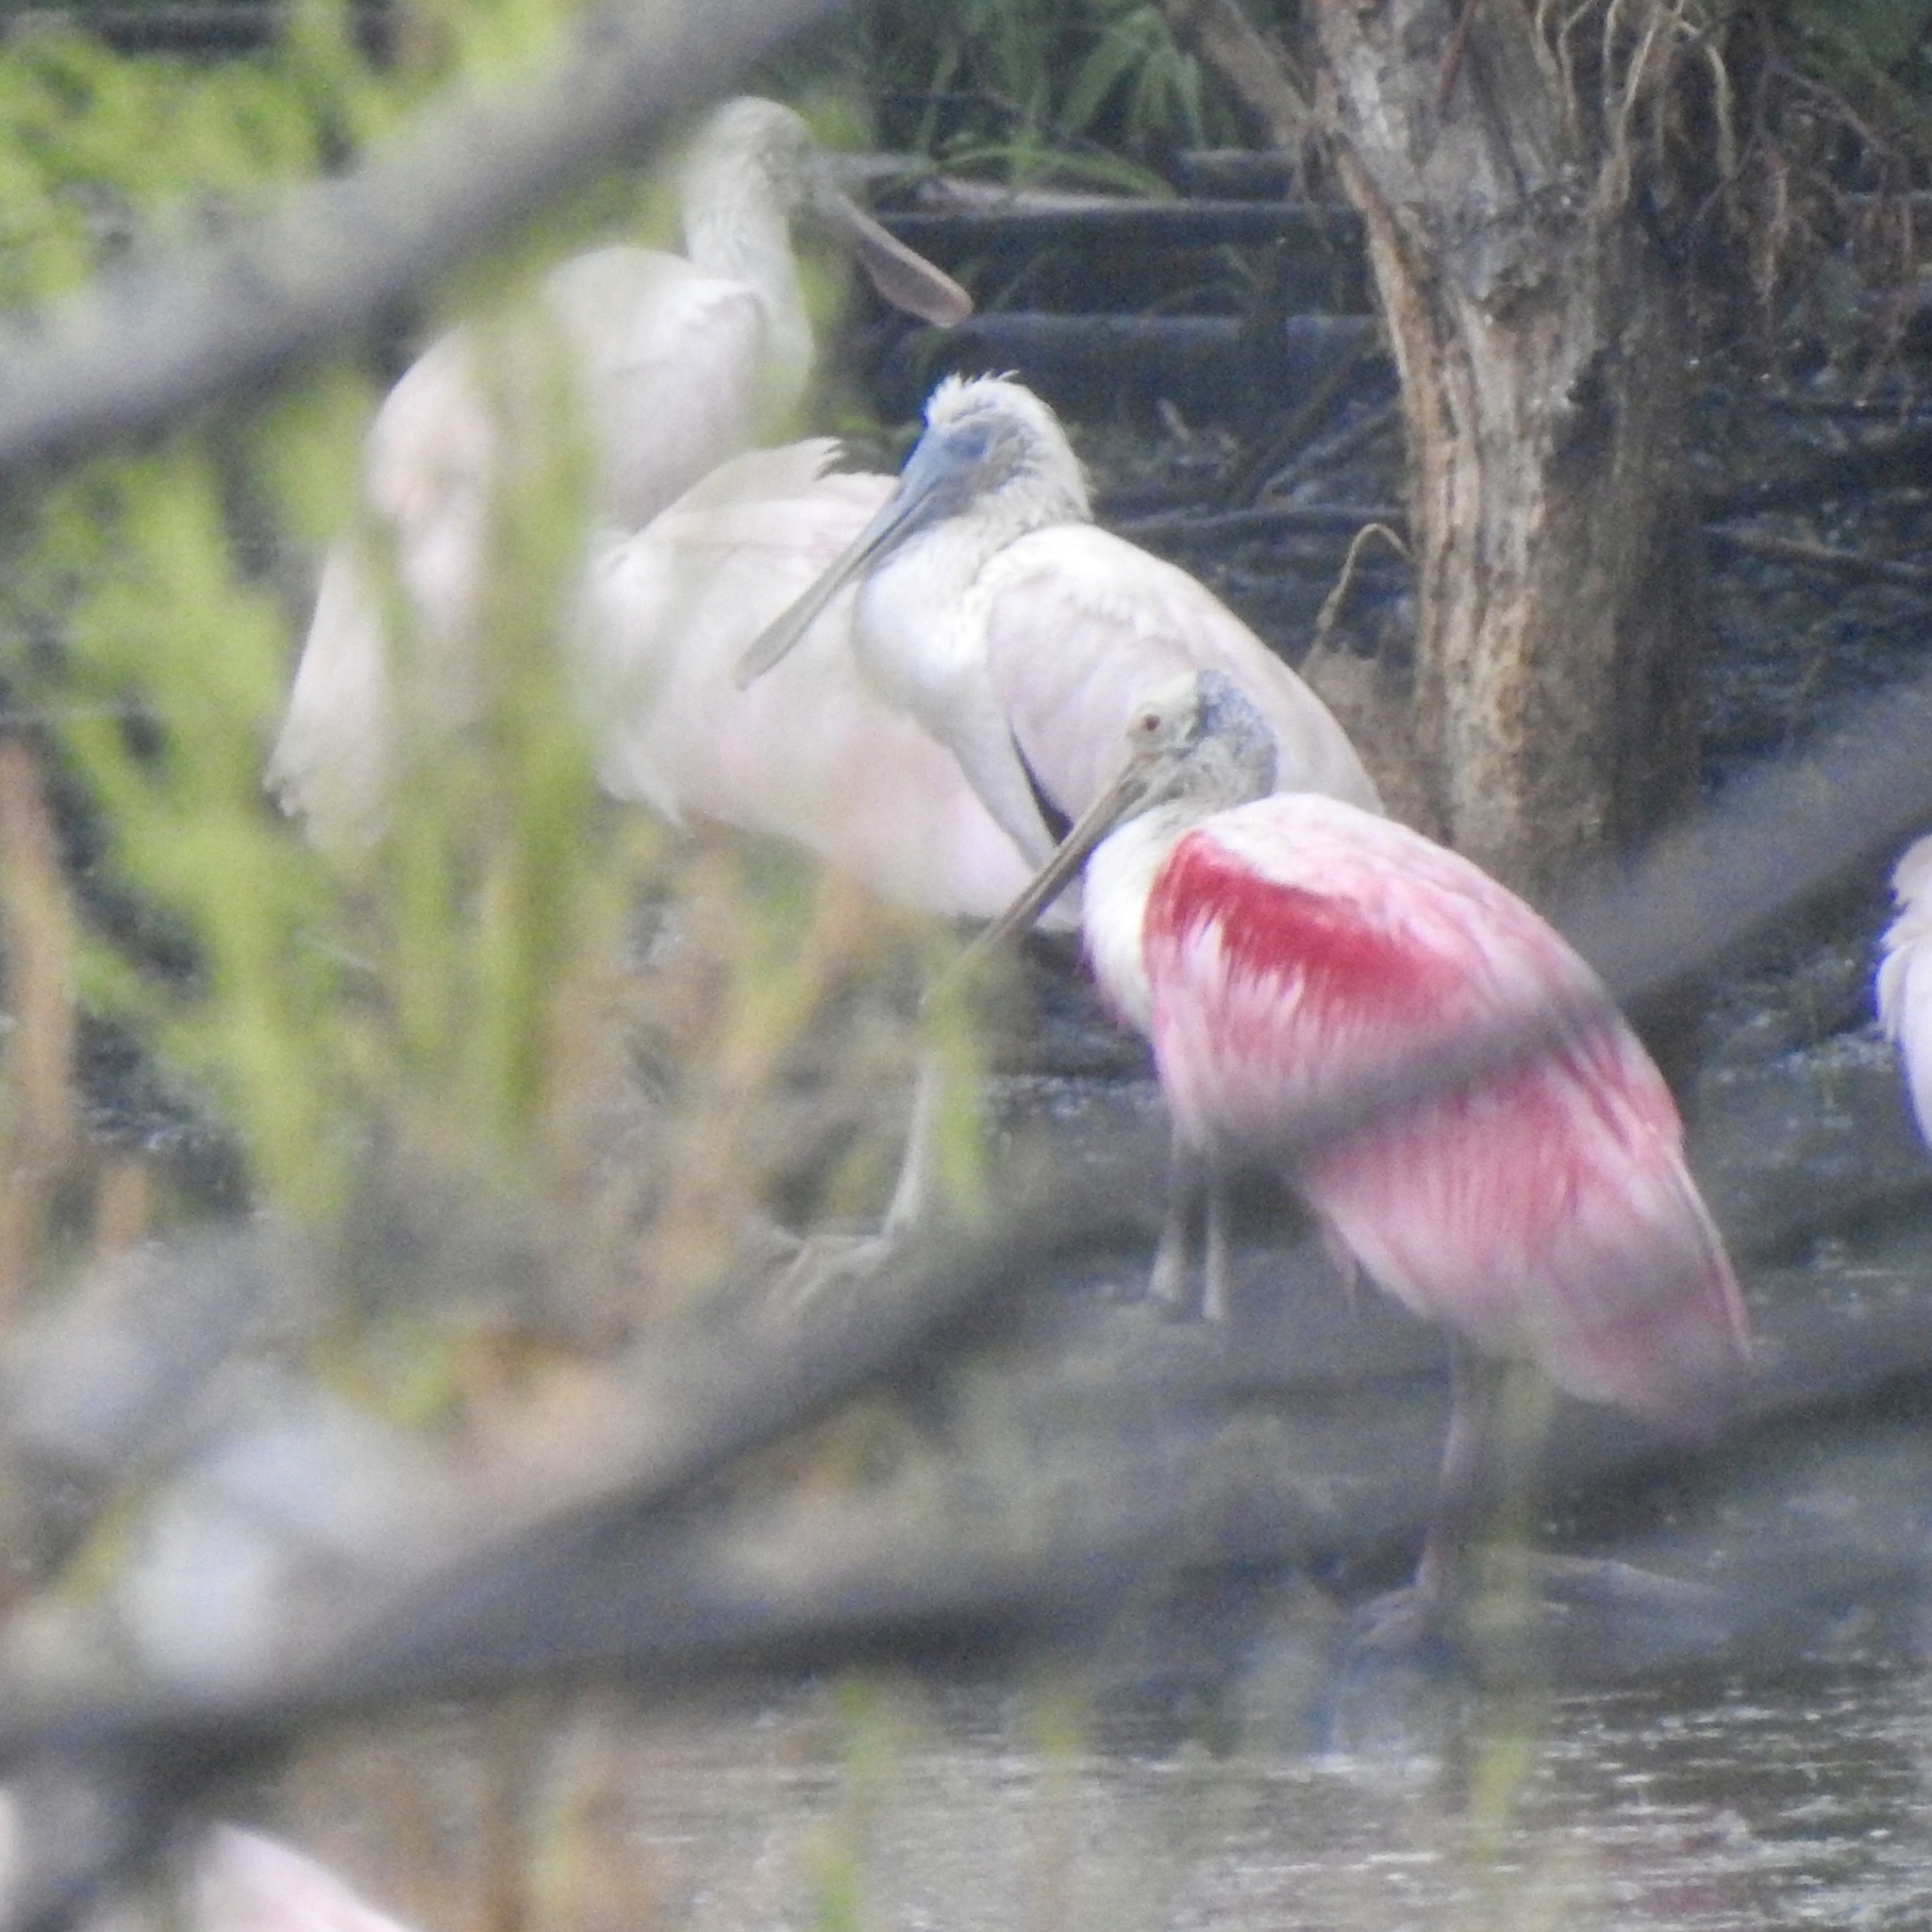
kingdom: Animalia
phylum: Chordata
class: Aves
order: Pelecaniformes
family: Threskiornithidae
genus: Platalea
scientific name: Platalea ajaja
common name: Roseate spoonbill
